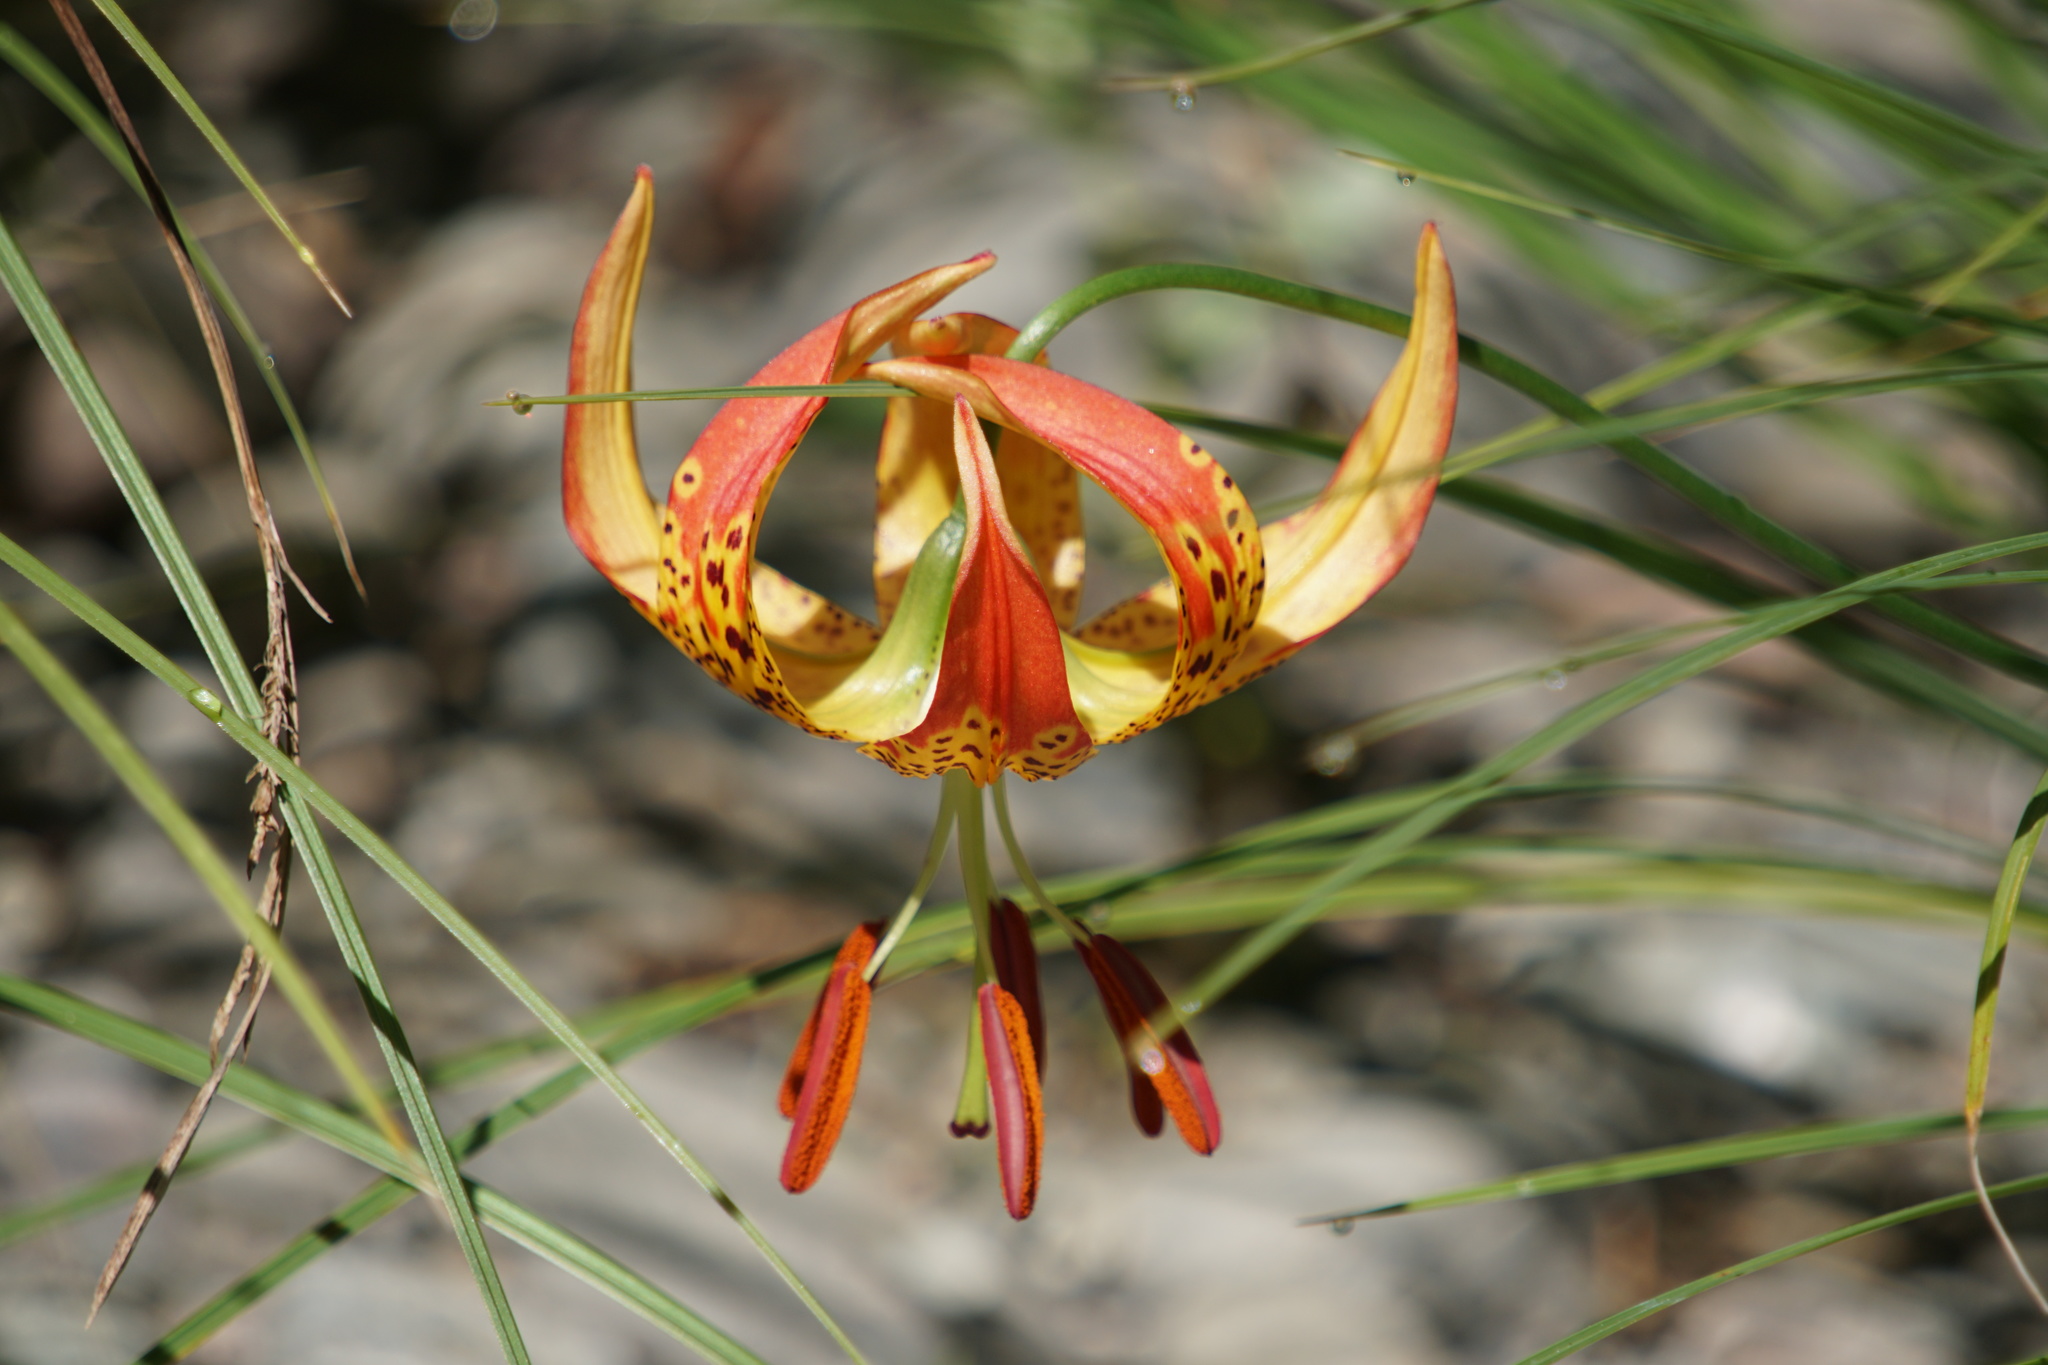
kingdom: Plantae
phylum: Tracheophyta
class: Liliopsida
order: Liliales
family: Liliaceae
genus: Lilium
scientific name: Lilium pardalinum
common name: Panther lily
